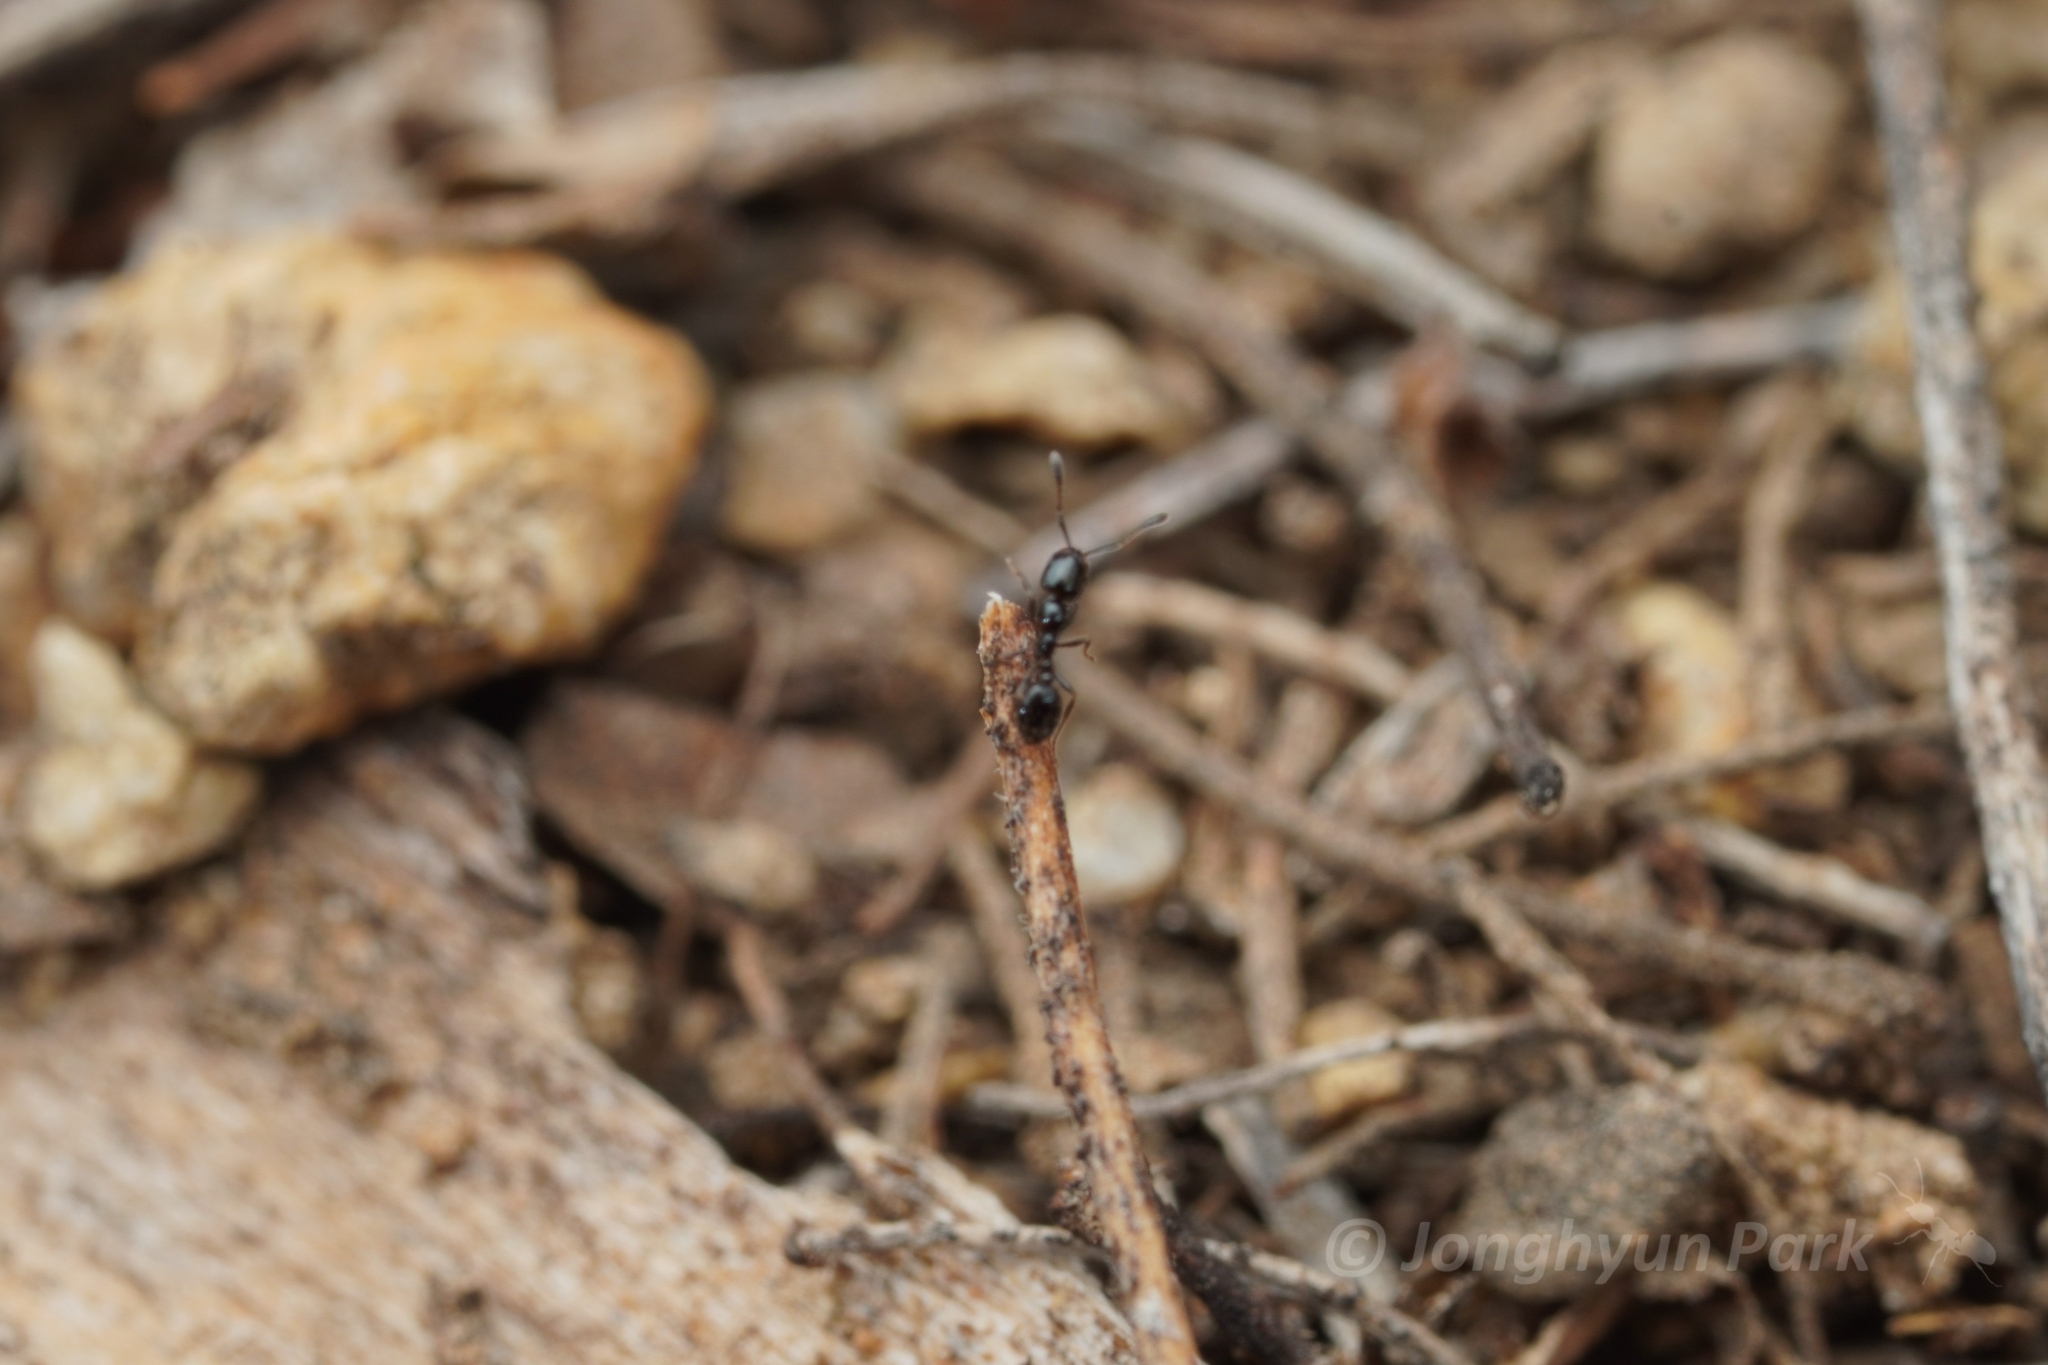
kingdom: Animalia
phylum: Arthropoda
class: Insecta
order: Hymenoptera
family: Formicidae
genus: Monomorium
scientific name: Monomorium
